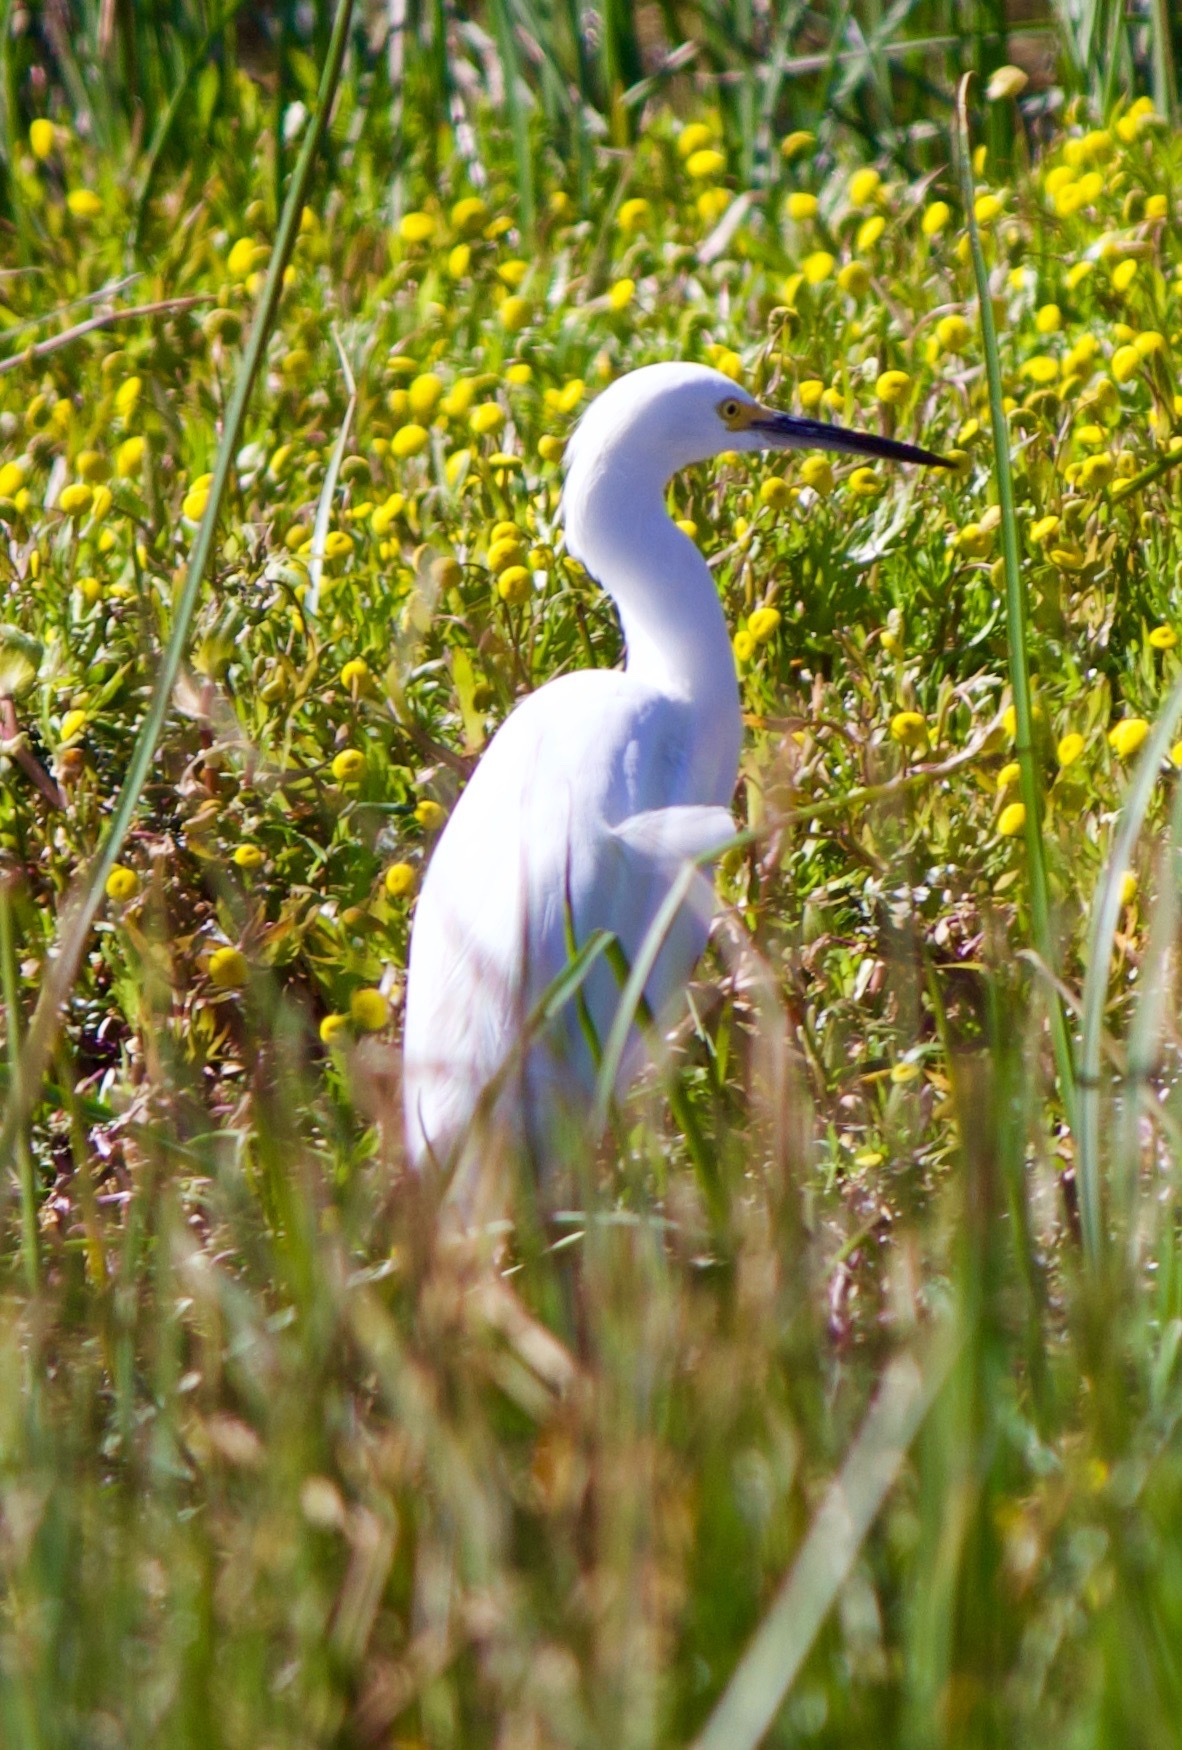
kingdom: Animalia
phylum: Chordata
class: Aves
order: Pelecaniformes
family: Ardeidae
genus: Egretta
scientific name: Egretta thula
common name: Snowy egret
